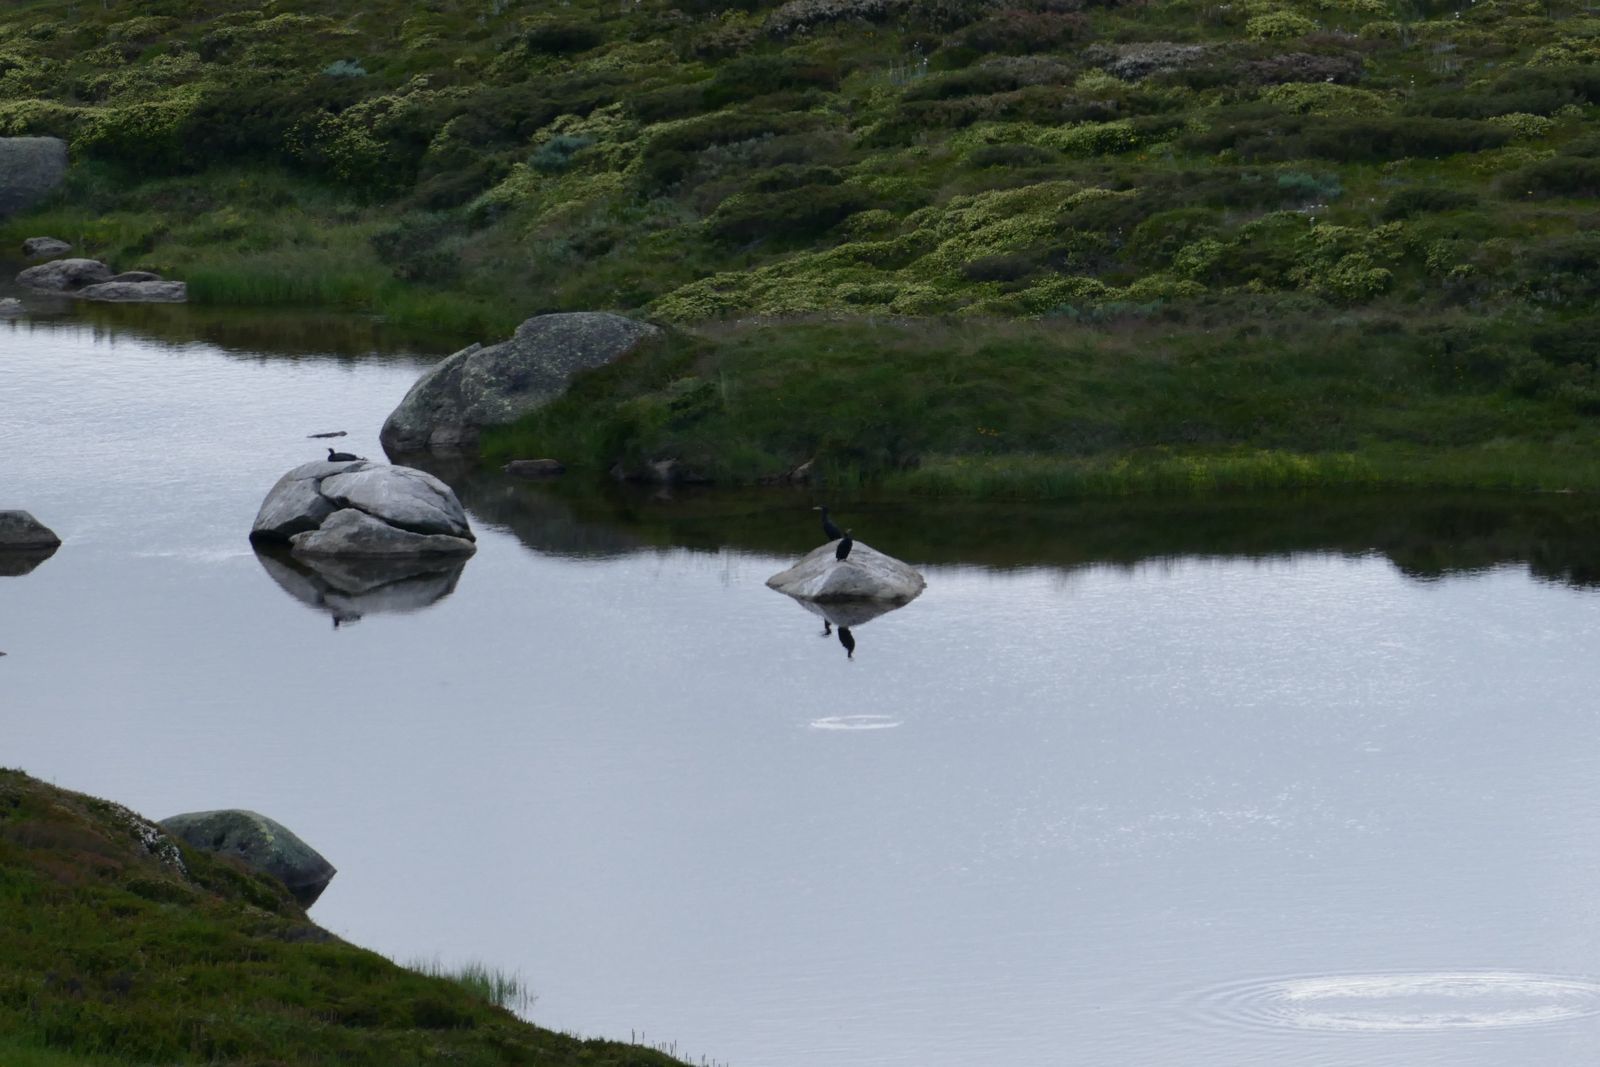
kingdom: Animalia
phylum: Chordata
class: Aves
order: Suliformes
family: Phalacrocoracidae
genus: Phalacrocorax
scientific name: Phalacrocorax sulcirostris
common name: Little black cormorant
